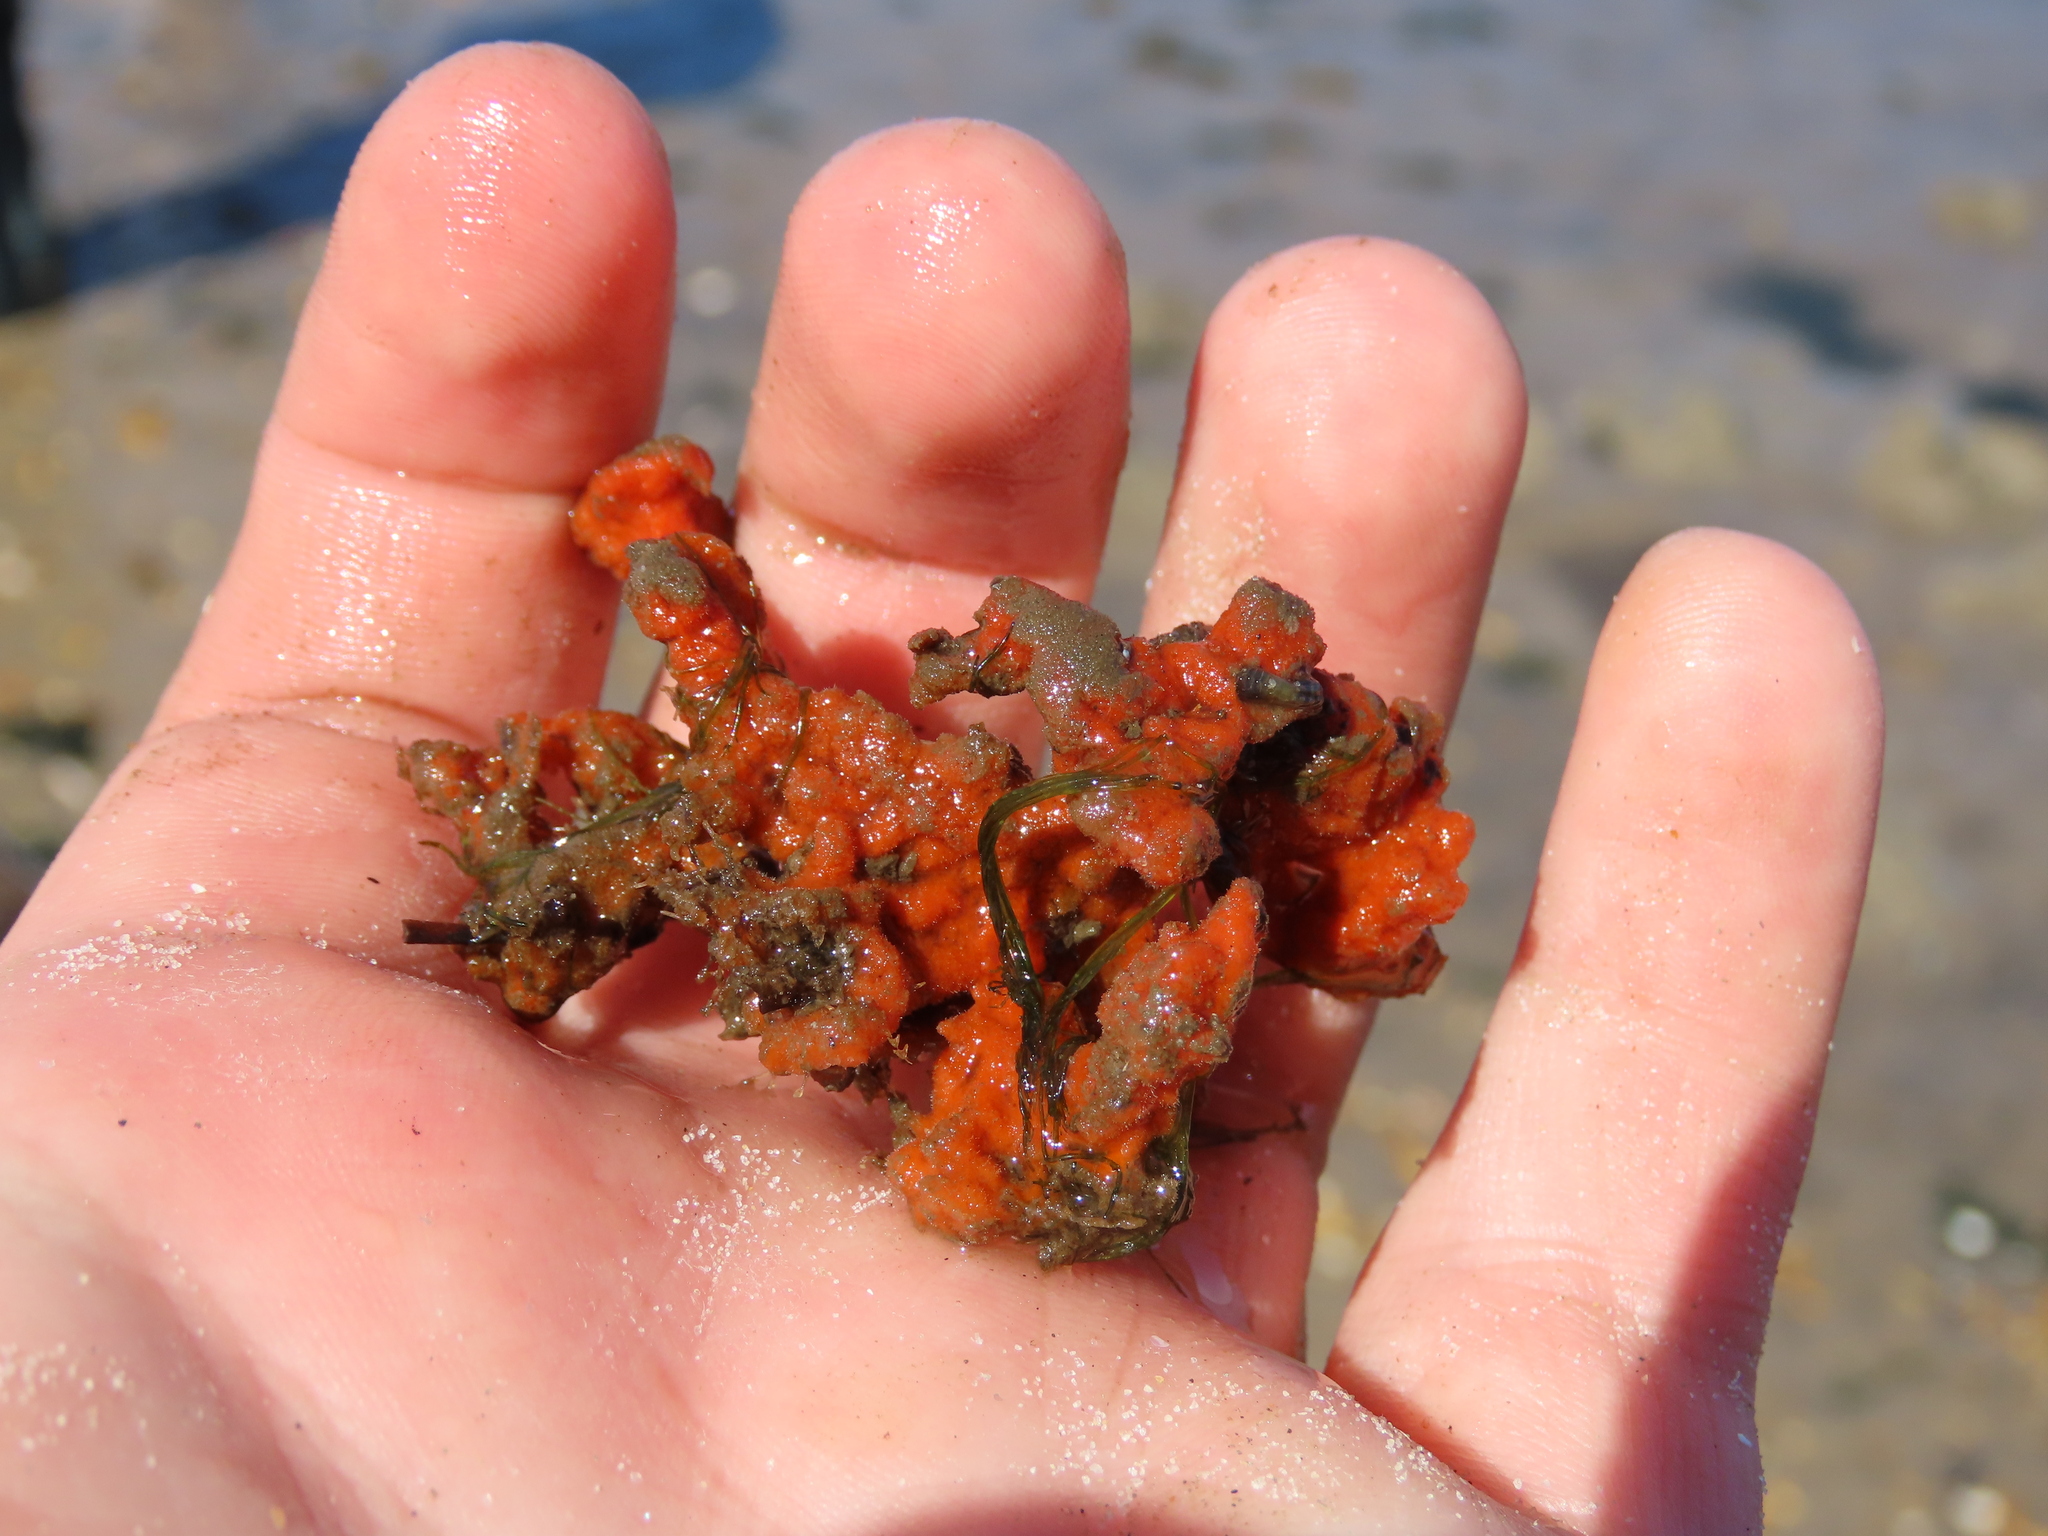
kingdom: Animalia
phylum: Porifera
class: Demospongiae
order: Poecilosclerida
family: Microcionidae
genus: Clathria
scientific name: Clathria prolifera
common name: Red beard sponge
